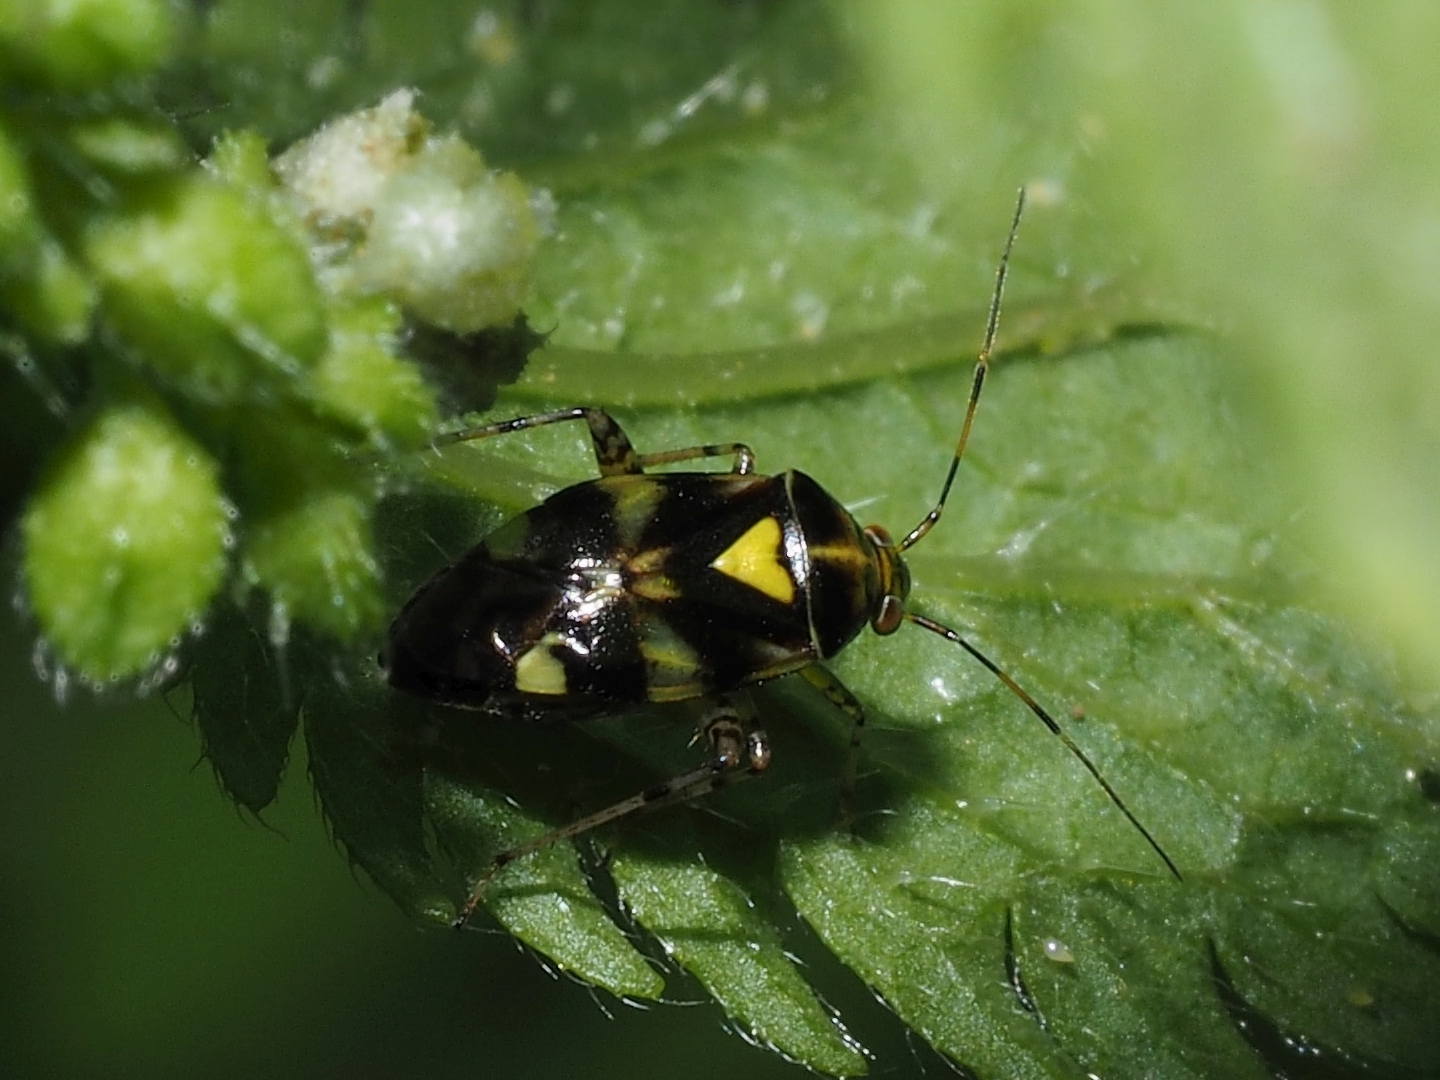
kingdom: Animalia
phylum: Arthropoda
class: Insecta
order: Hemiptera
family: Miridae
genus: Liocoris
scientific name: Liocoris tripustulatus
